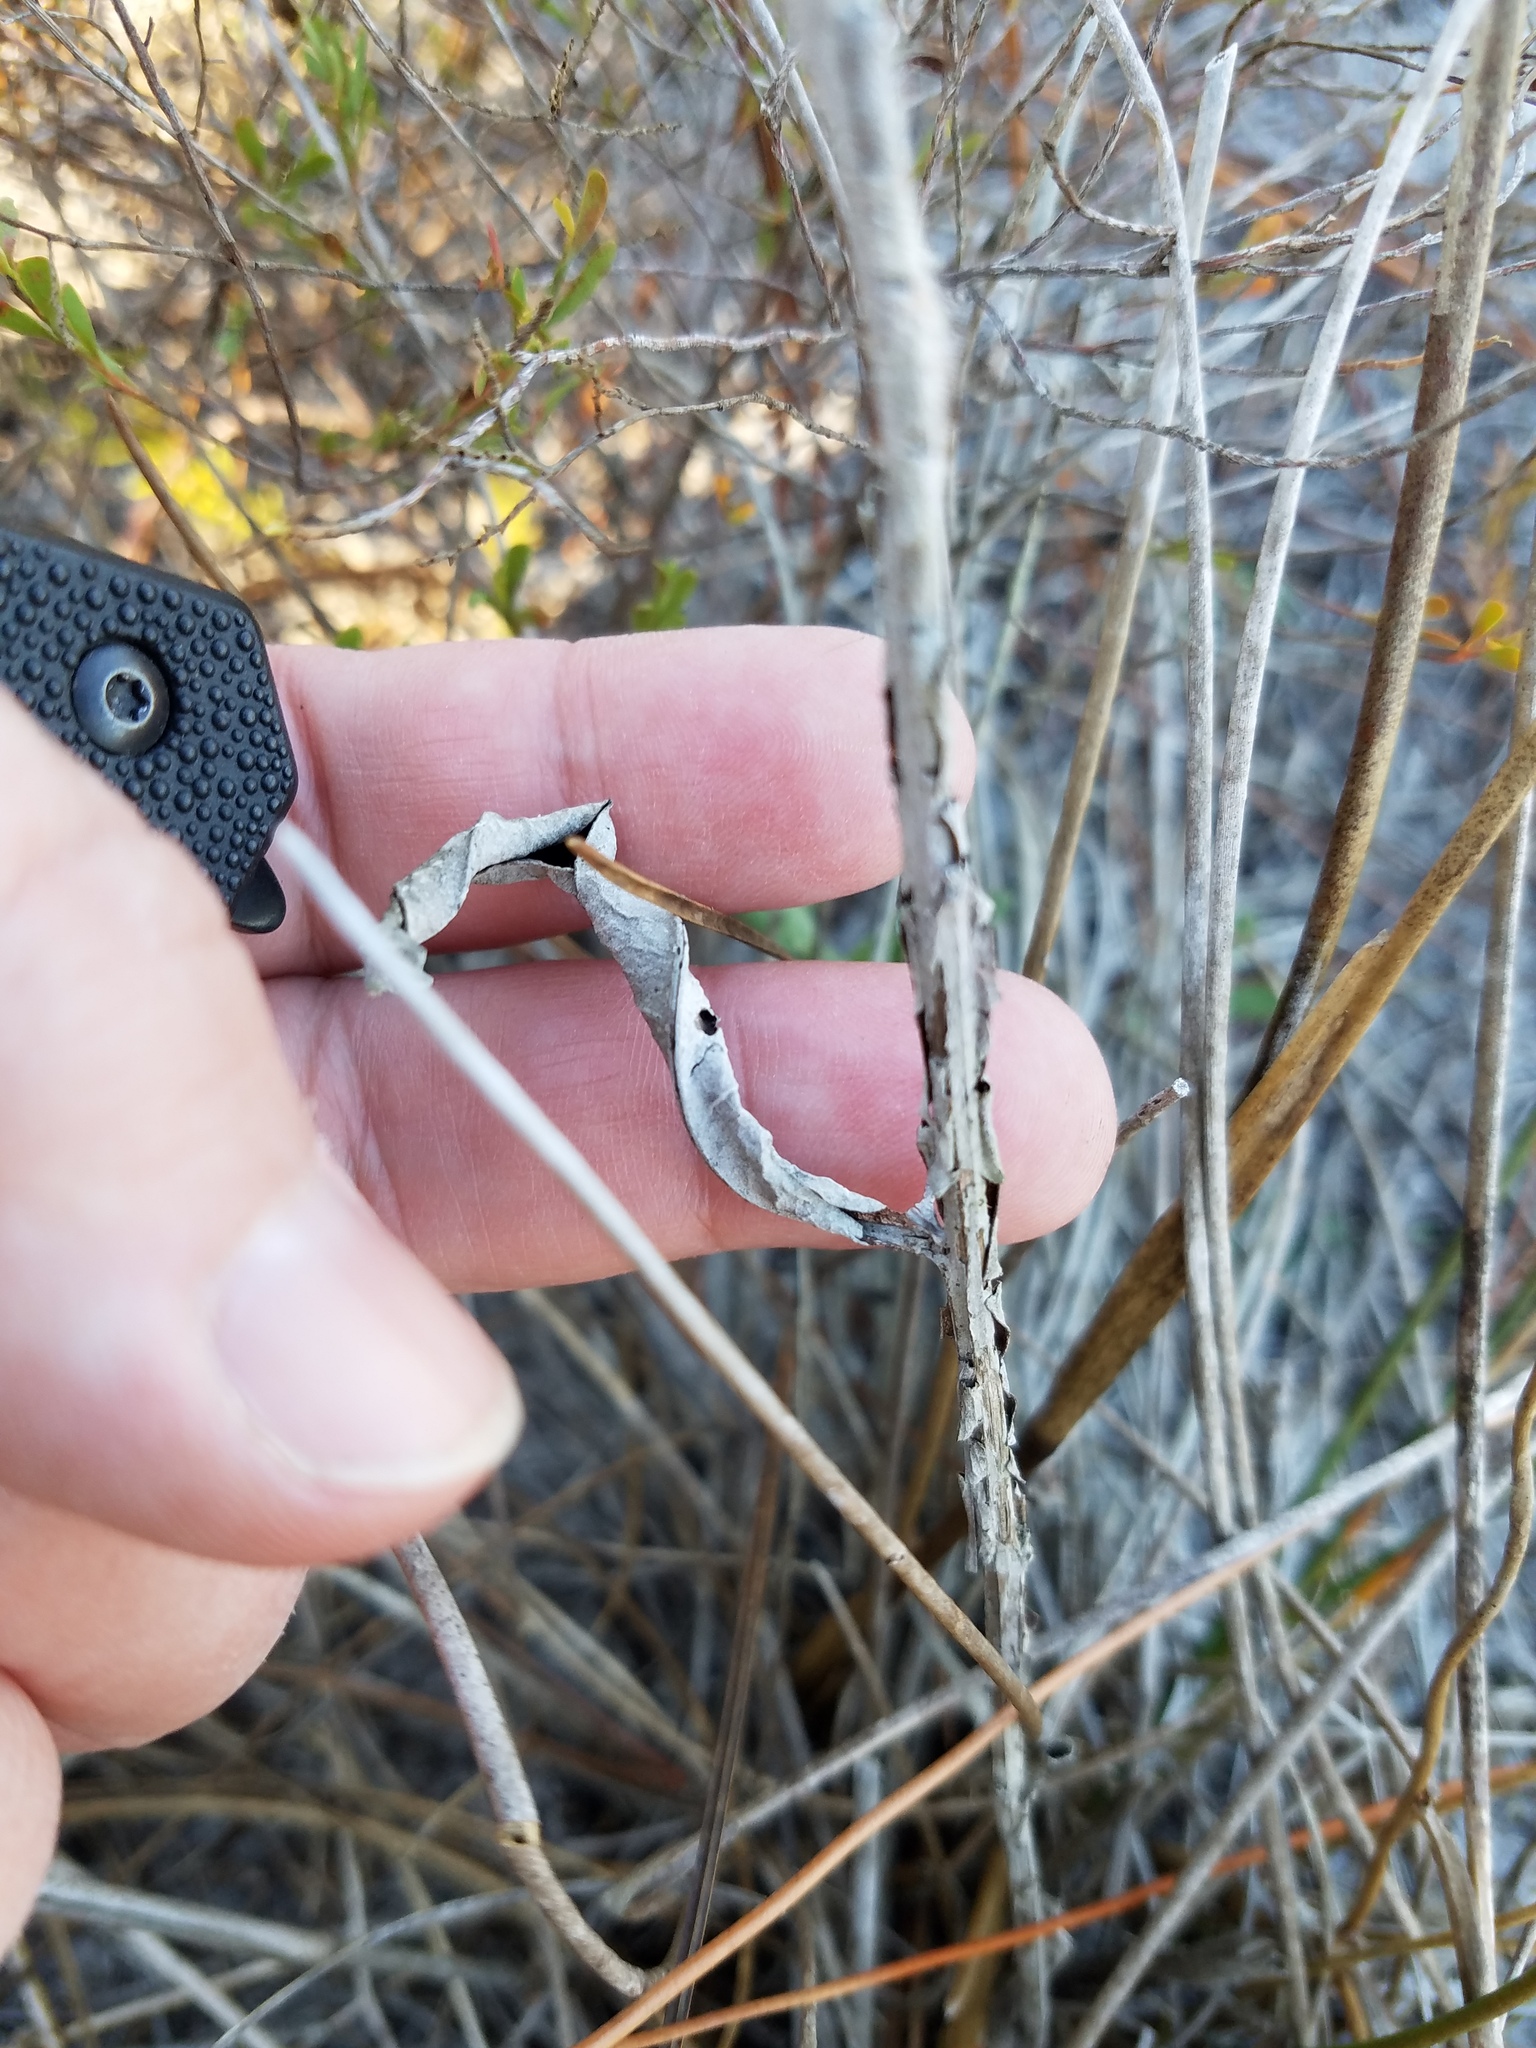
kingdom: Plantae
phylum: Tracheophyta
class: Magnoliopsida
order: Asterales
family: Asteraceae
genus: Pterocaulon
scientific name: Pterocaulon pycnostachyum
